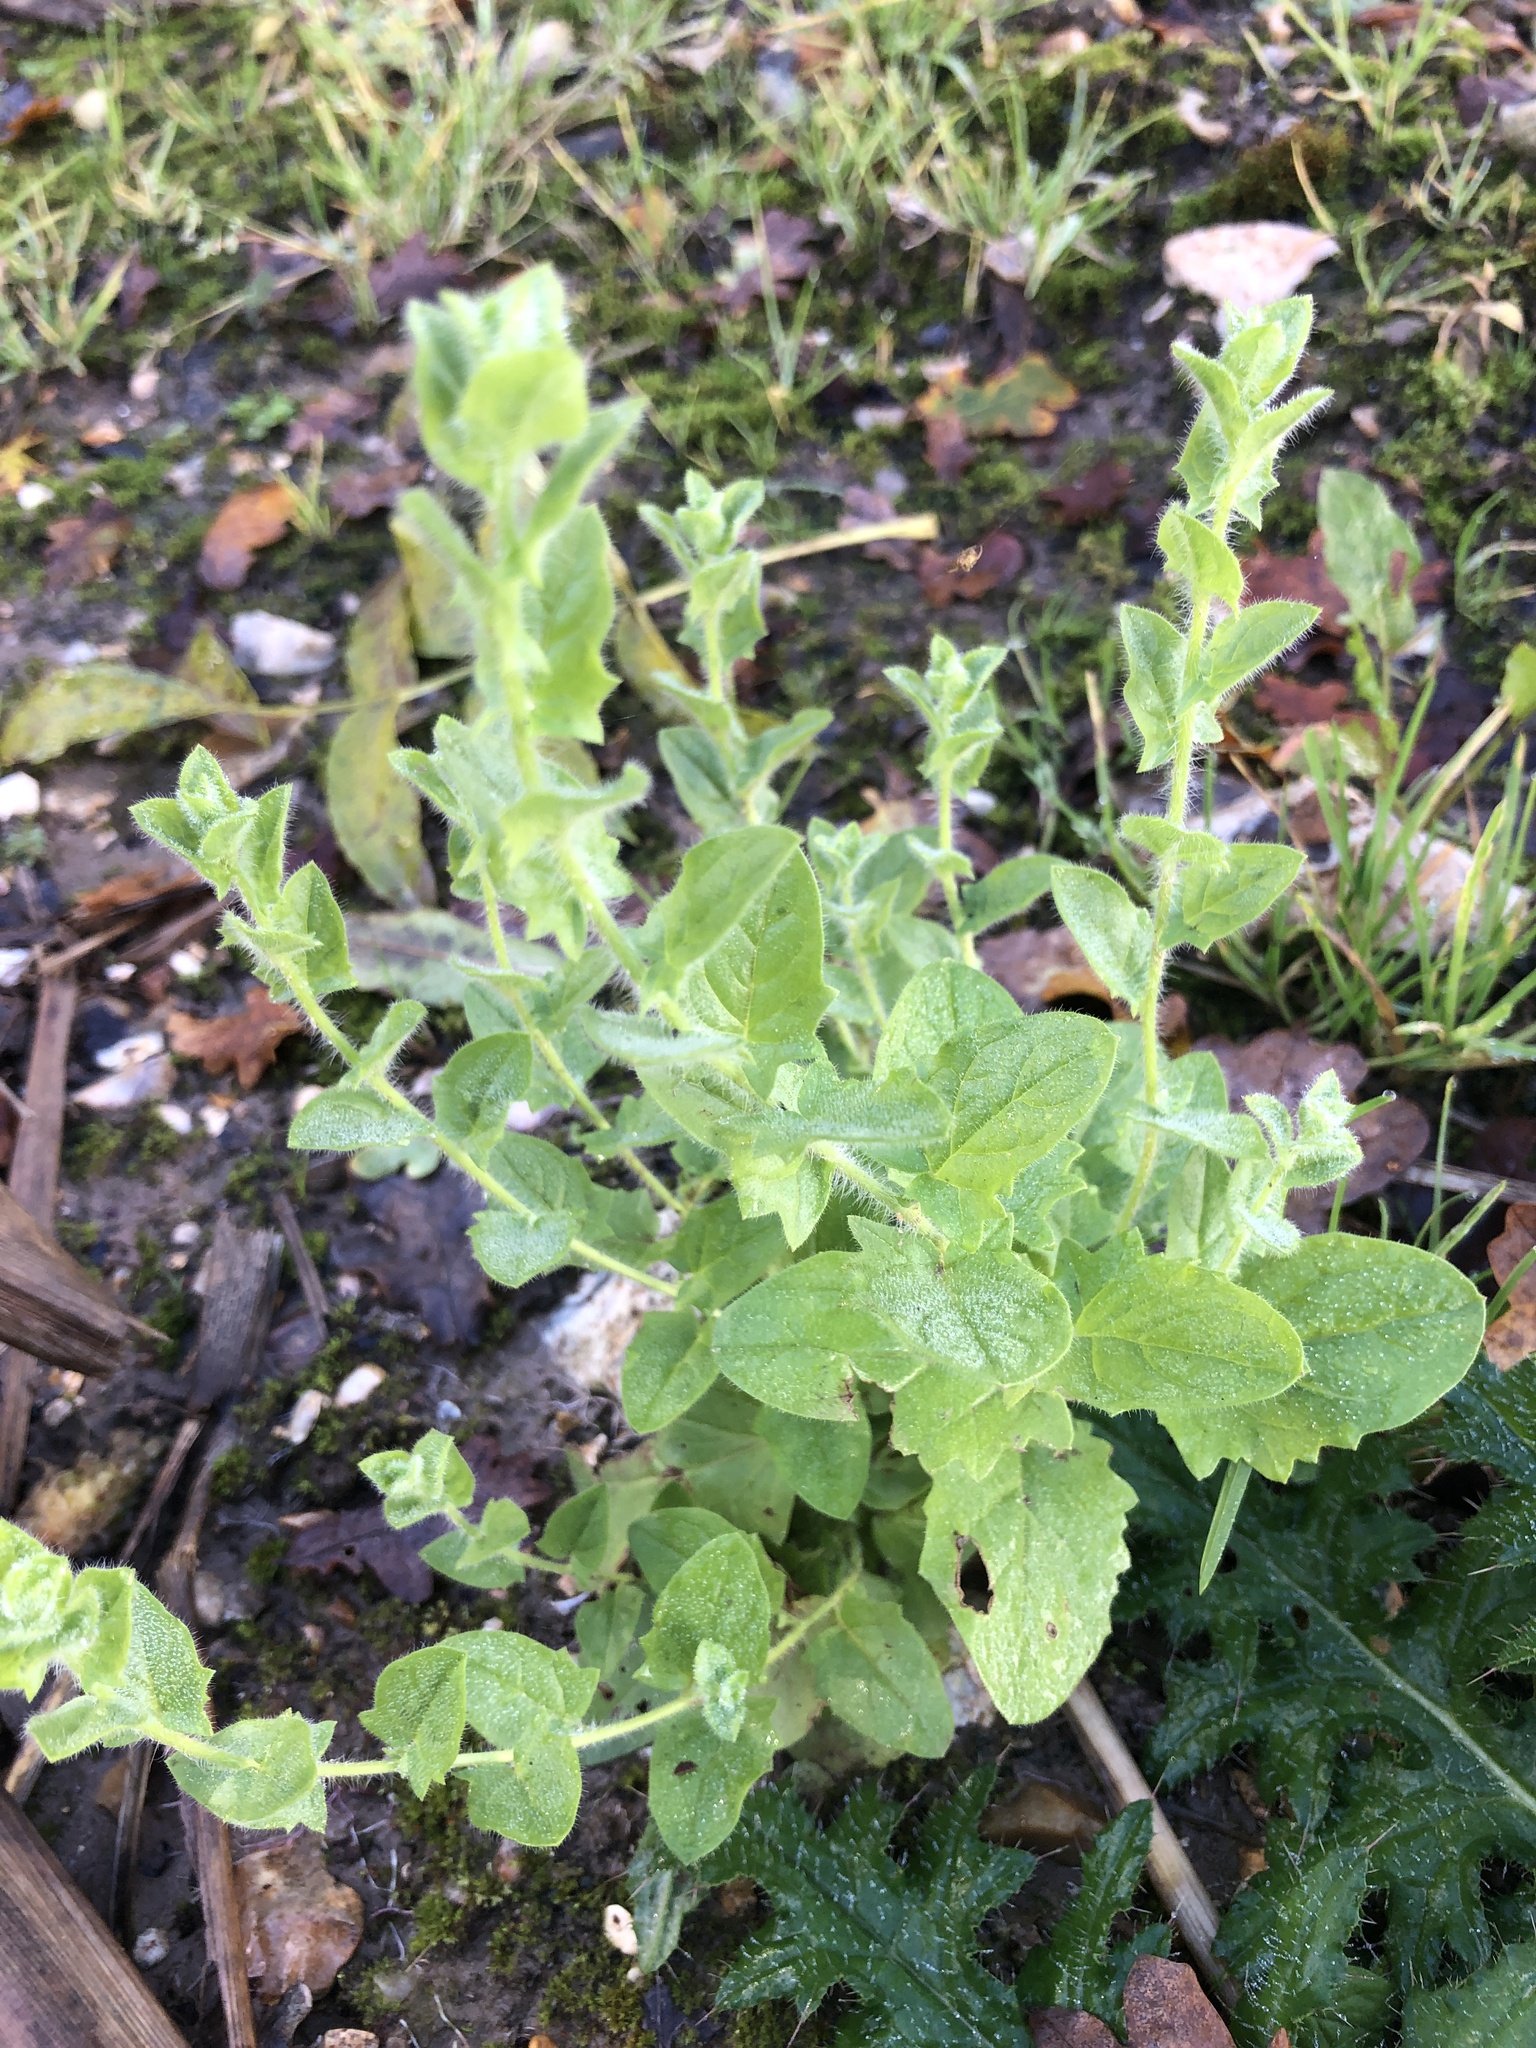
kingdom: Plantae
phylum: Tracheophyta
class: Magnoliopsida
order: Lamiales
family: Plantaginaceae
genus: Kickxia
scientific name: Kickxia elatine
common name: Sharp-leaved fluellen
